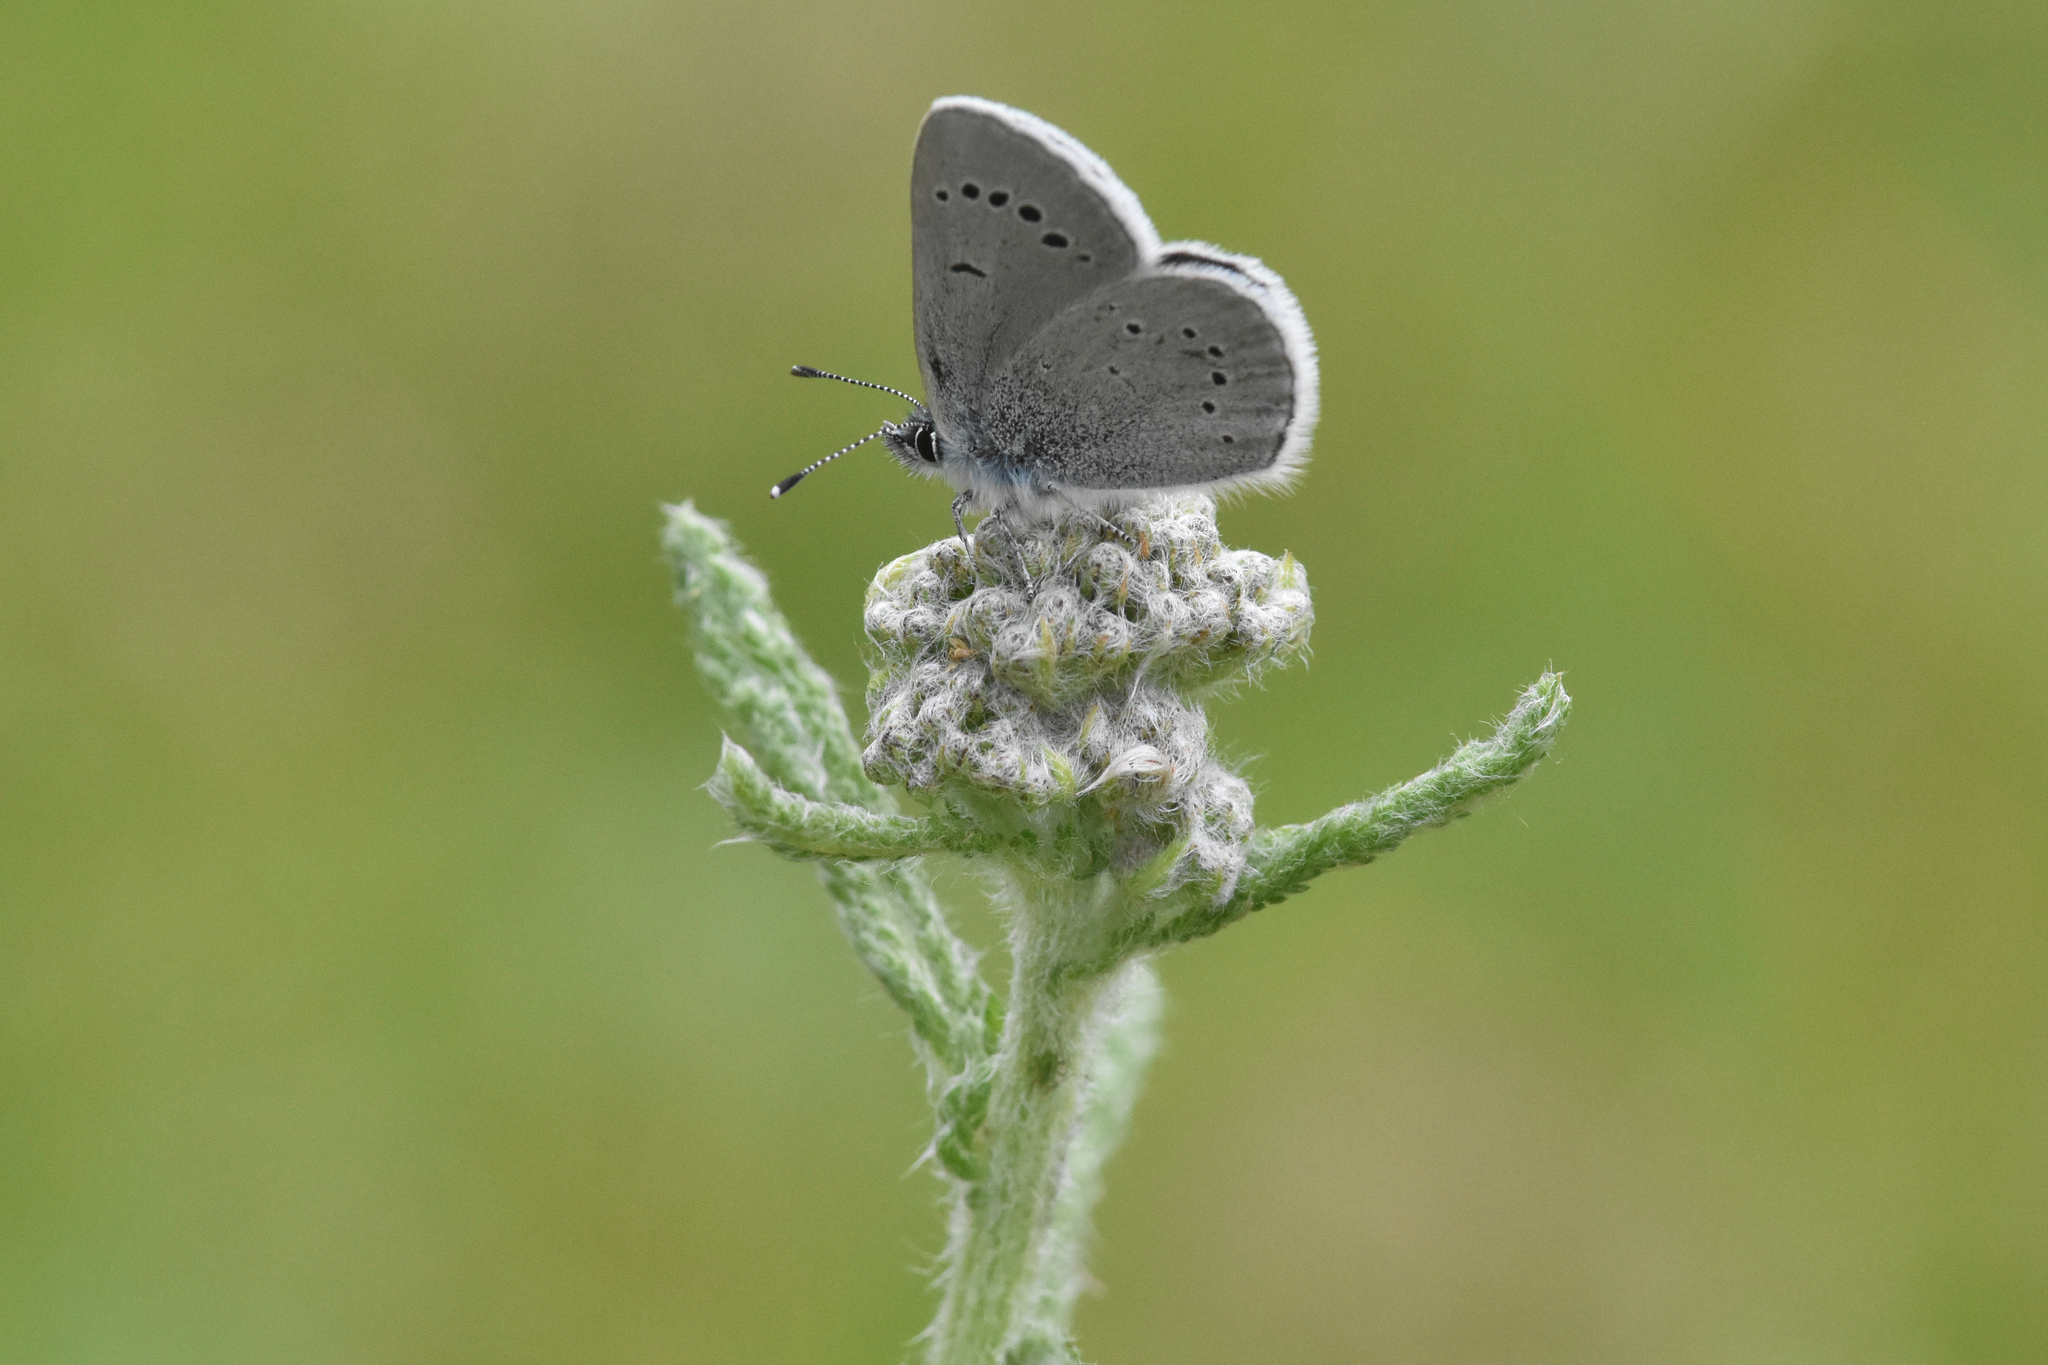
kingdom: Animalia
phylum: Arthropoda
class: Insecta
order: Lepidoptera
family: Lycaenidae
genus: Glaucopsyche
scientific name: Glaucopsyche lygdamus
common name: Silvery blue
